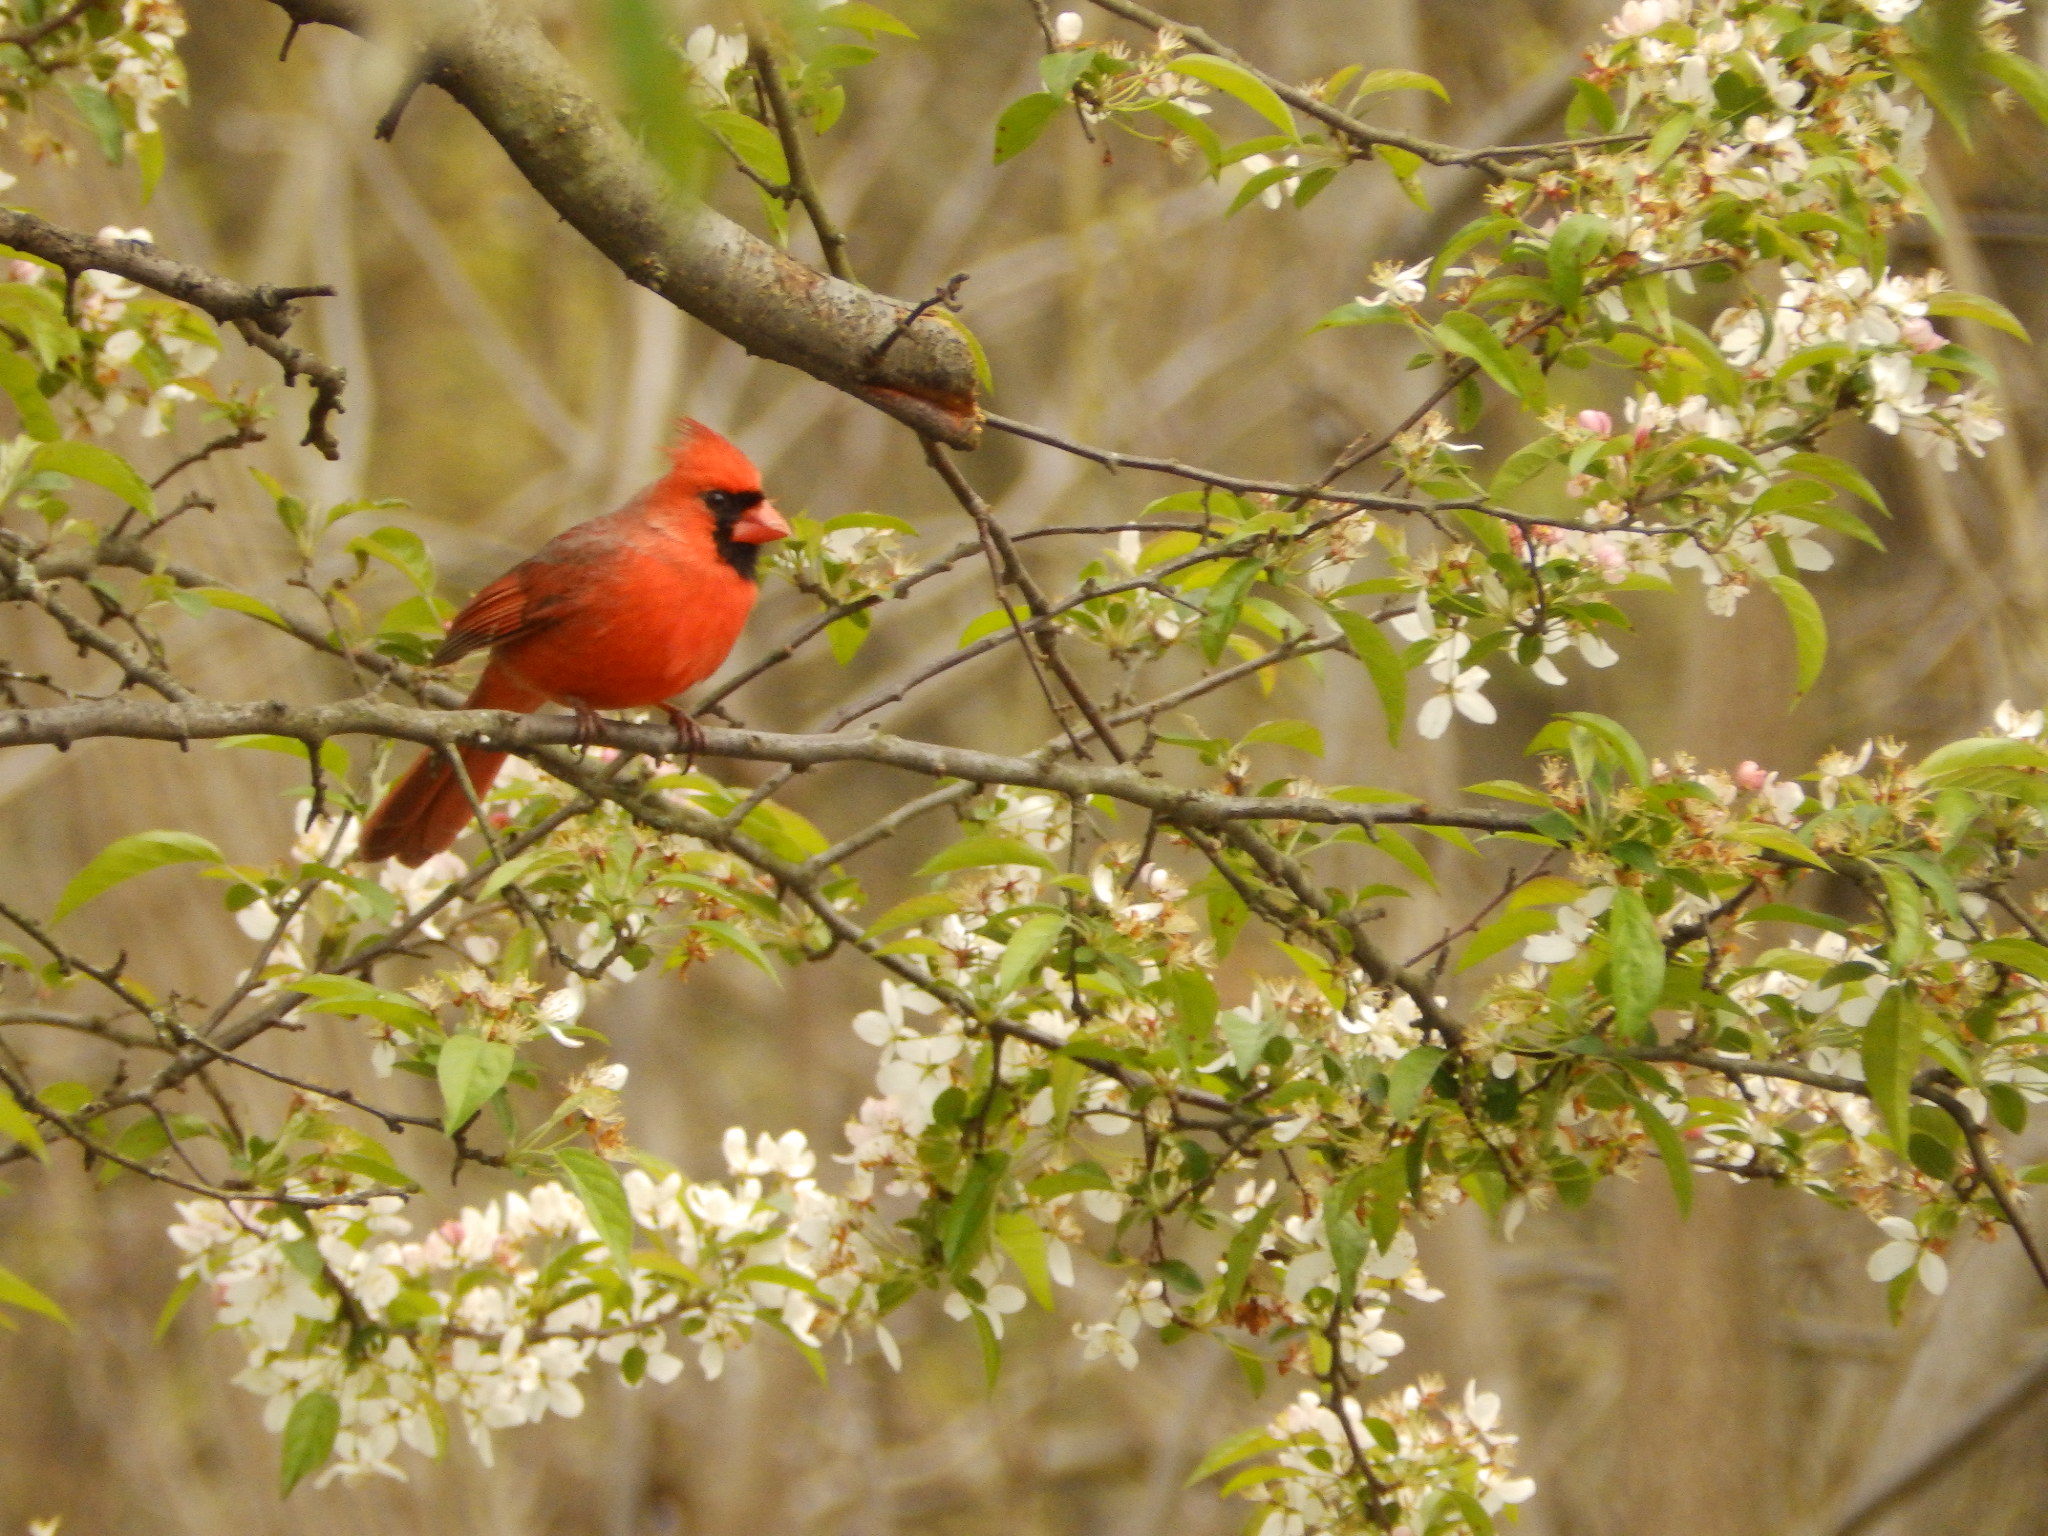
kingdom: Animalia
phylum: Chordata
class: Aves
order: Passeriformes
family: Cardinalidae
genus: Cardinalis
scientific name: Cardinalis cardinalis
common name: Northern cardinal
